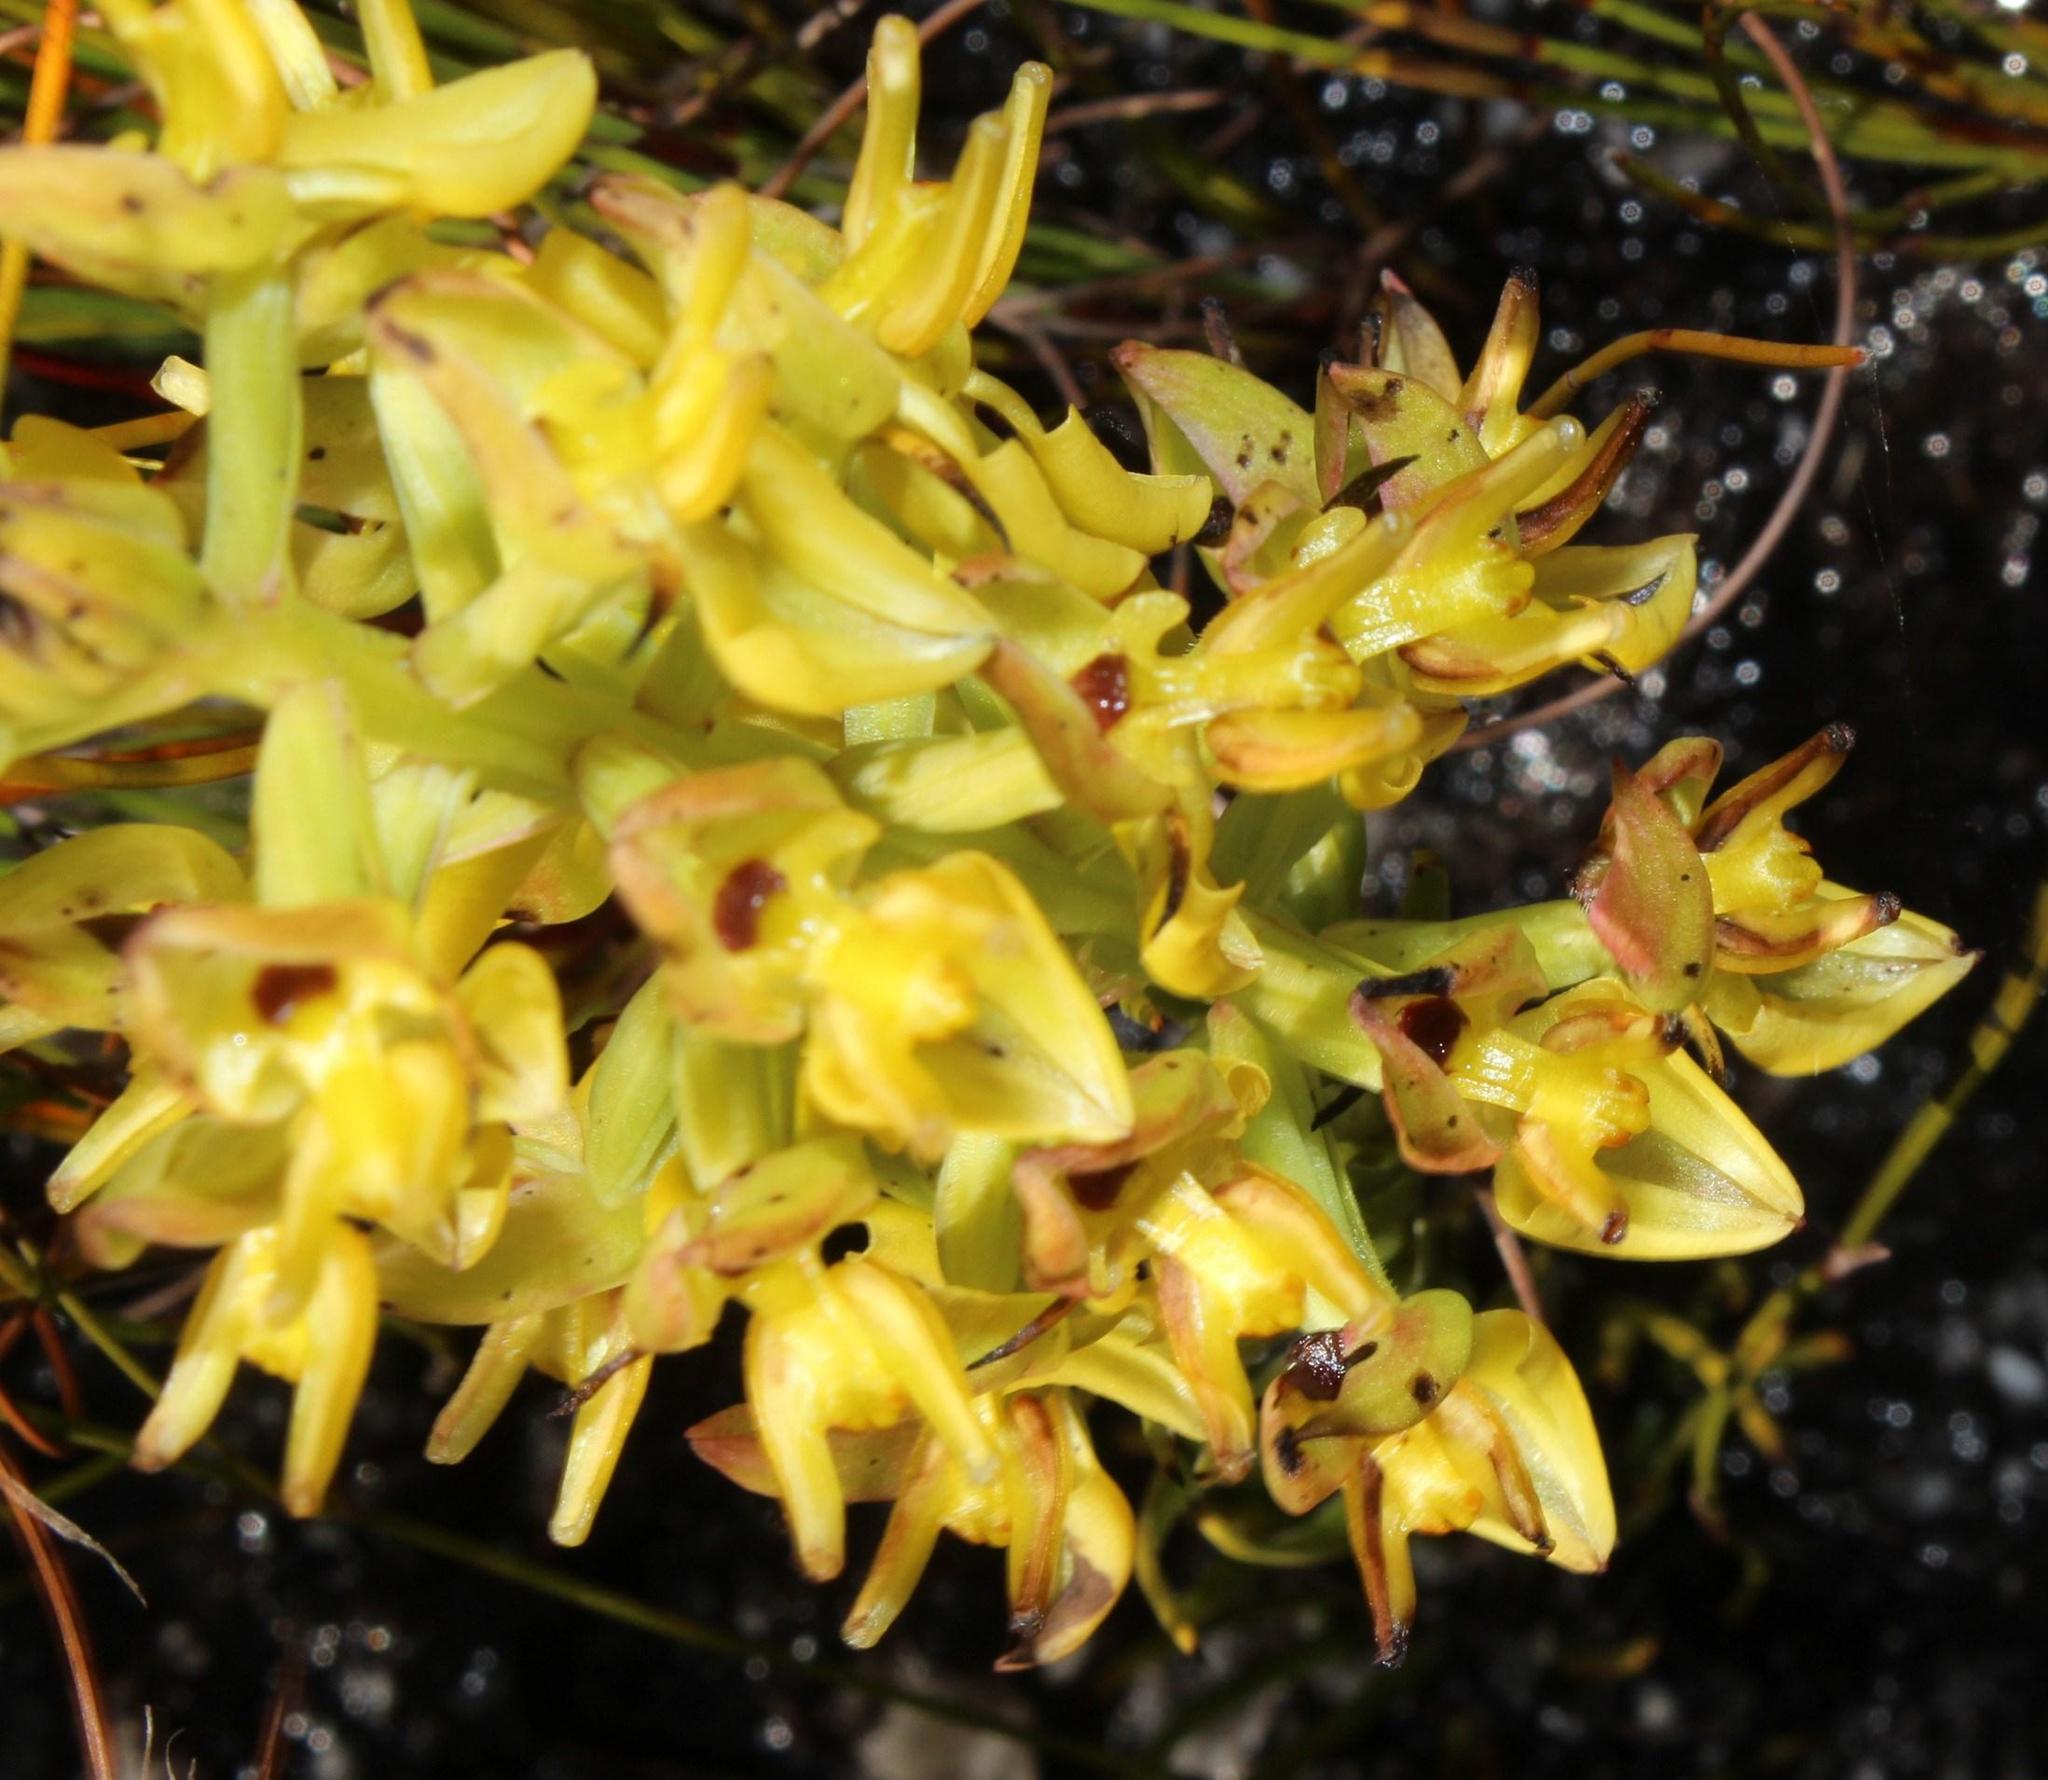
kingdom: Plantae
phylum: Tracheophyta
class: Liliopsida
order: Asparagales
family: Orchidaceae
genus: Ceratandra
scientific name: Ceratandra atrata
